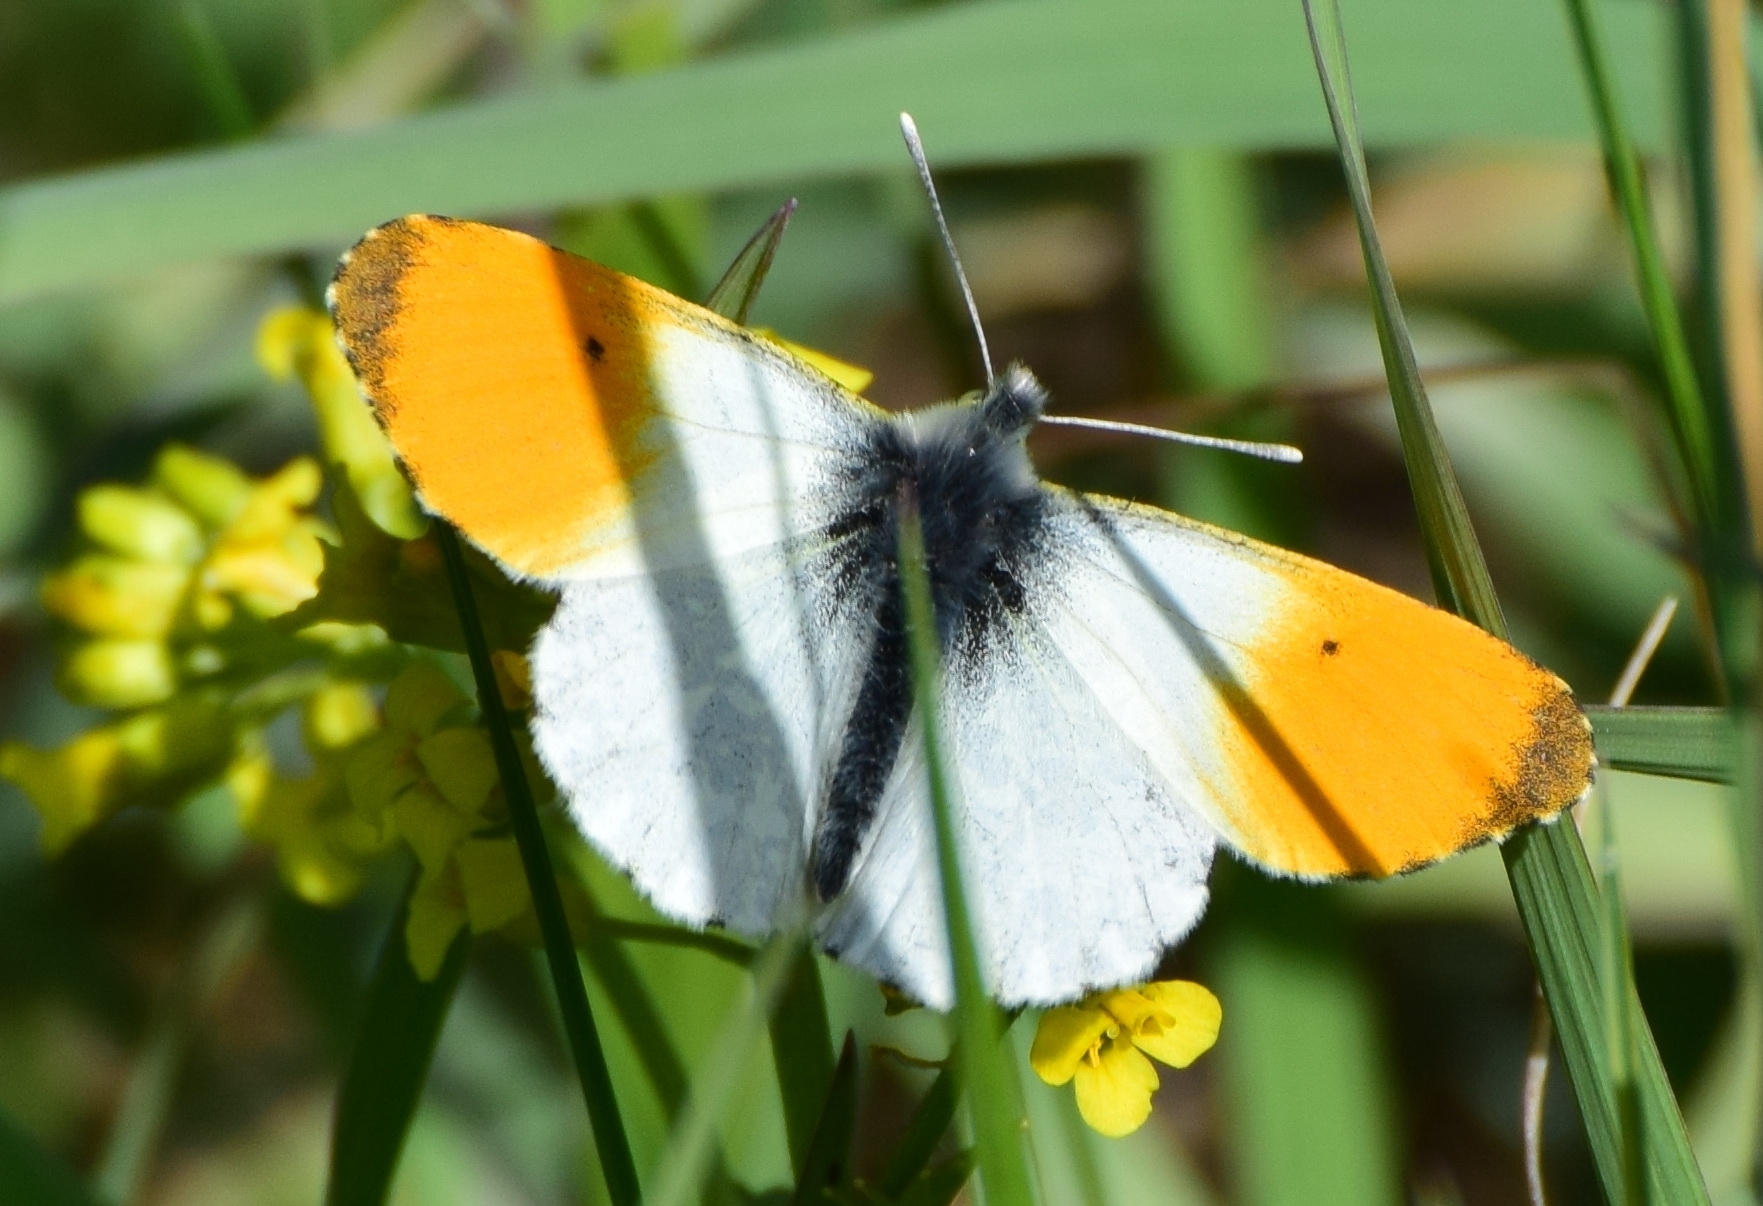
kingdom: Animalia
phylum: Arthropoda
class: Insecta
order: Lepidoptera
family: Pieridae
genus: Anthocharis
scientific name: Anthocharis cardamines
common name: Orange-tip
